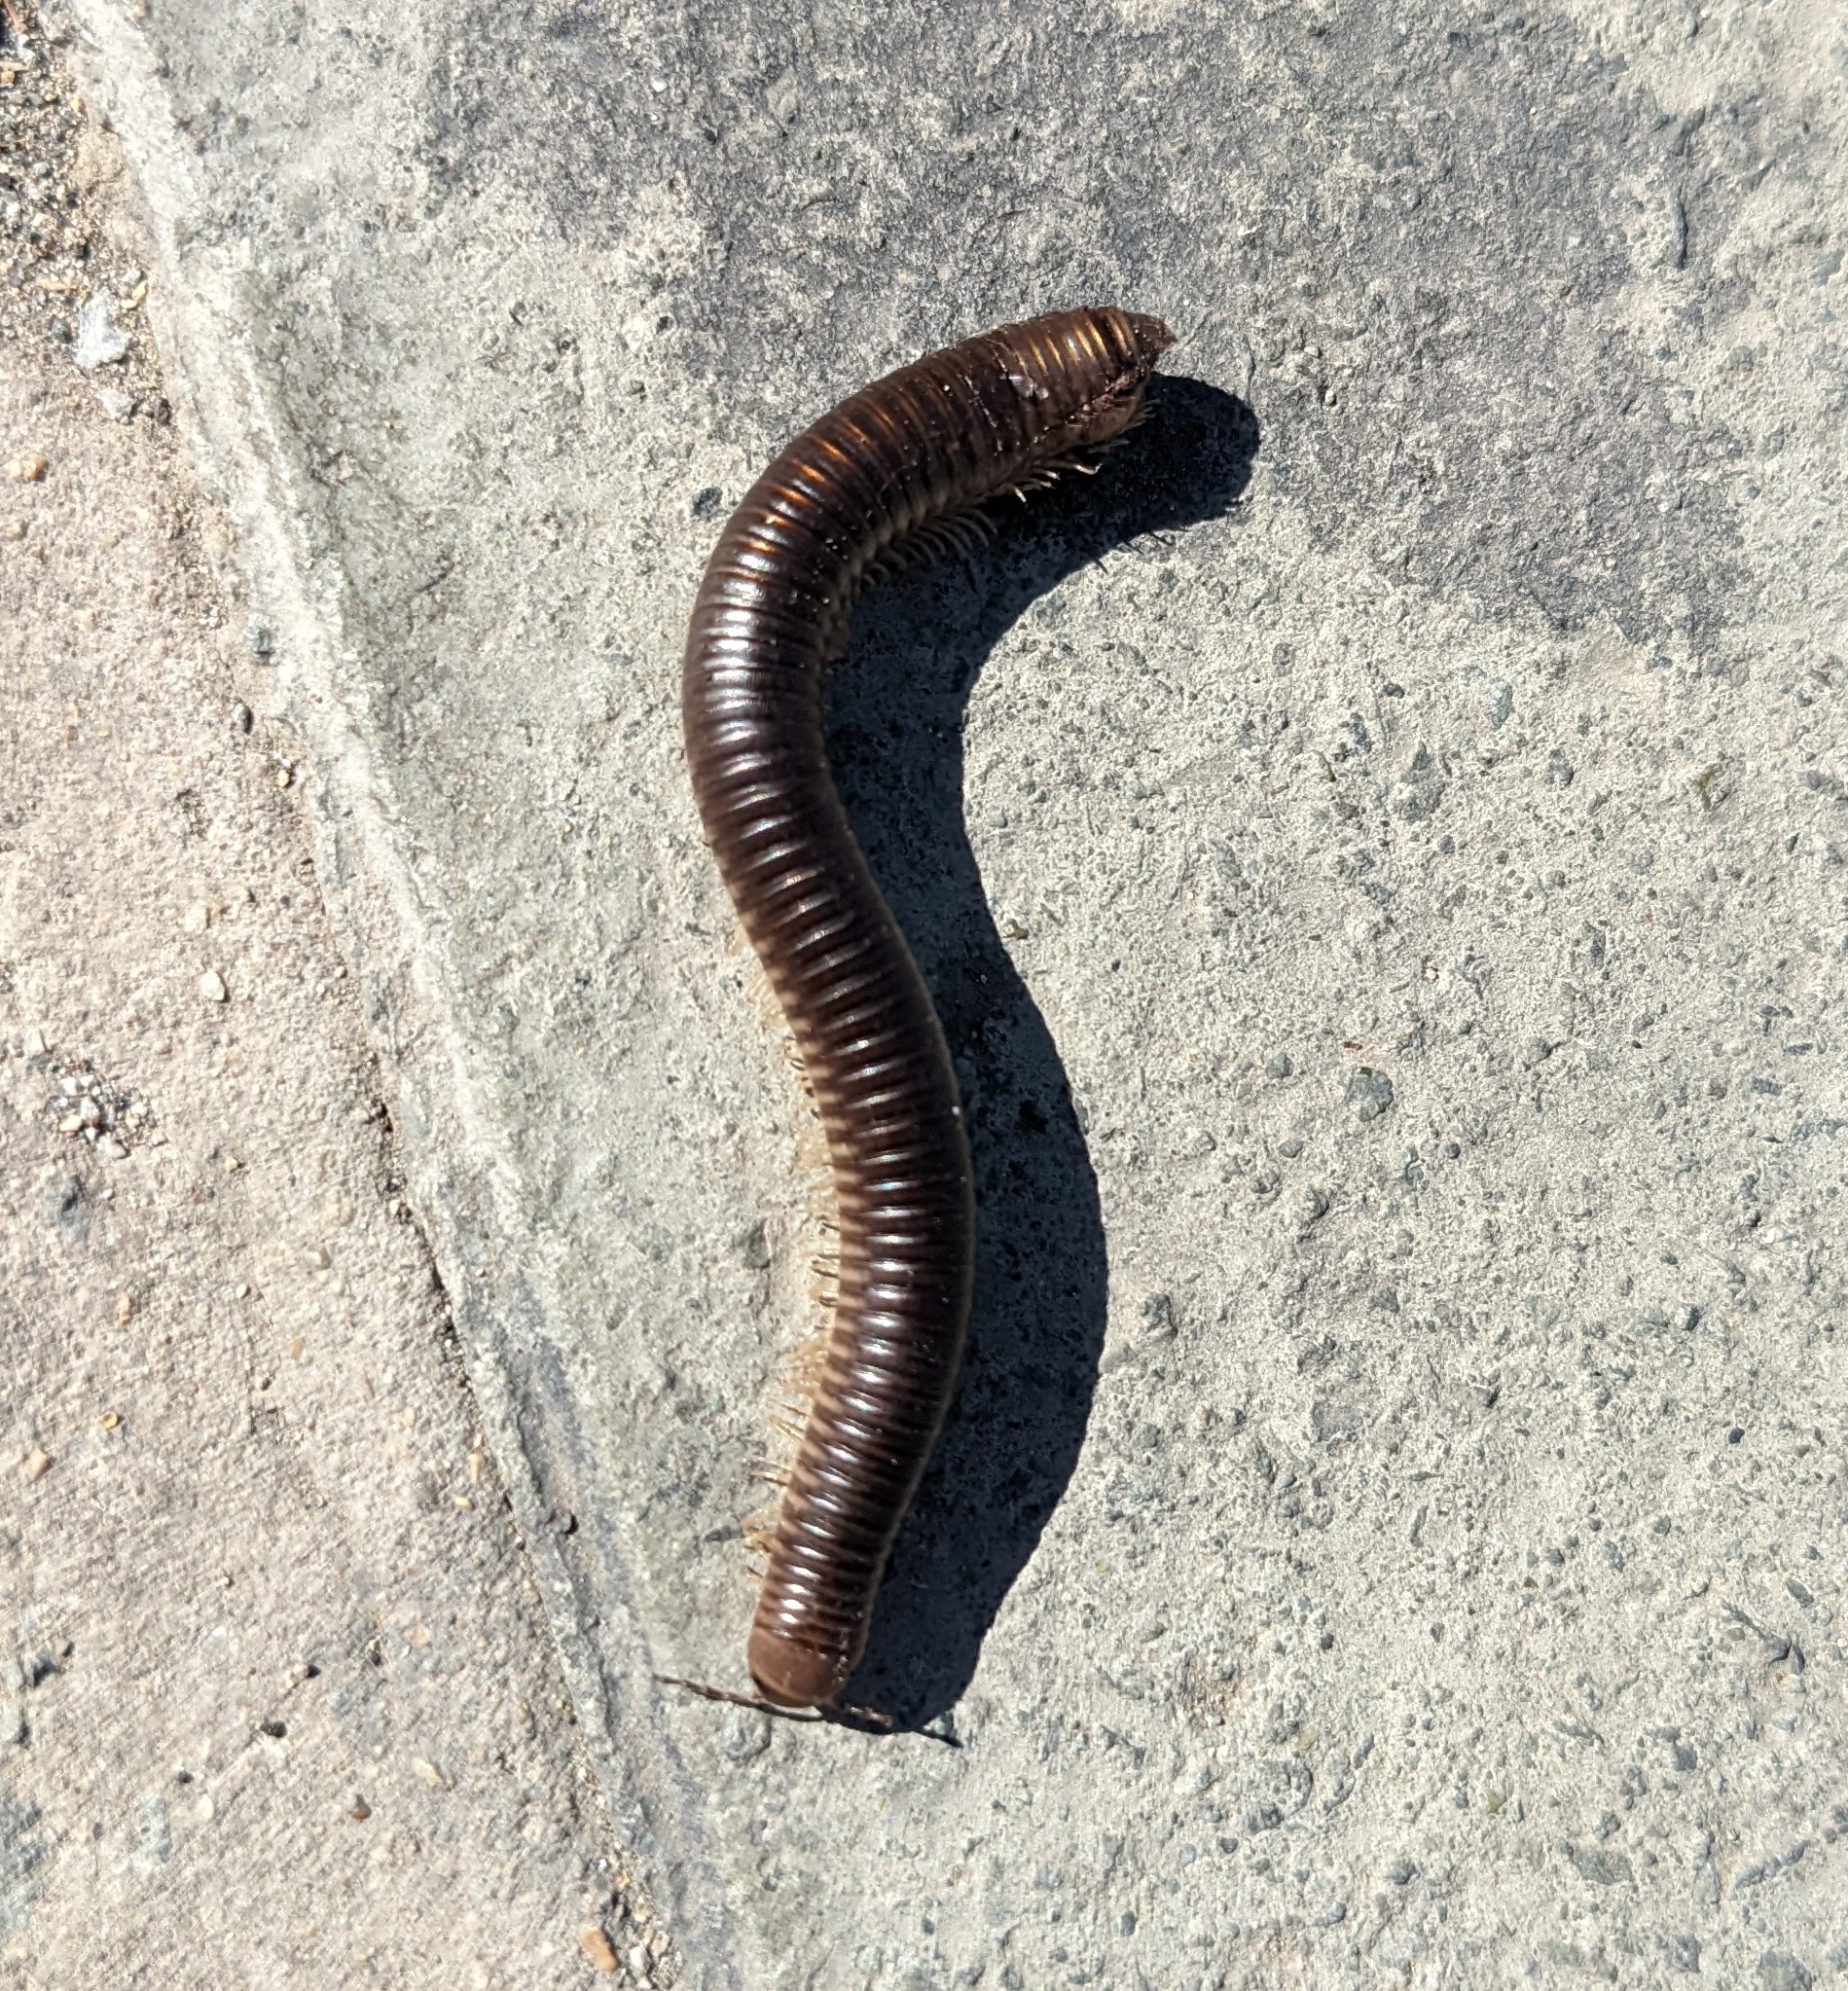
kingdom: Animalia
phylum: Arthropoda
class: Diplopoda
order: Julida
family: Julidae
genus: Pachyiulus
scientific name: Pachyiulus flavipes
